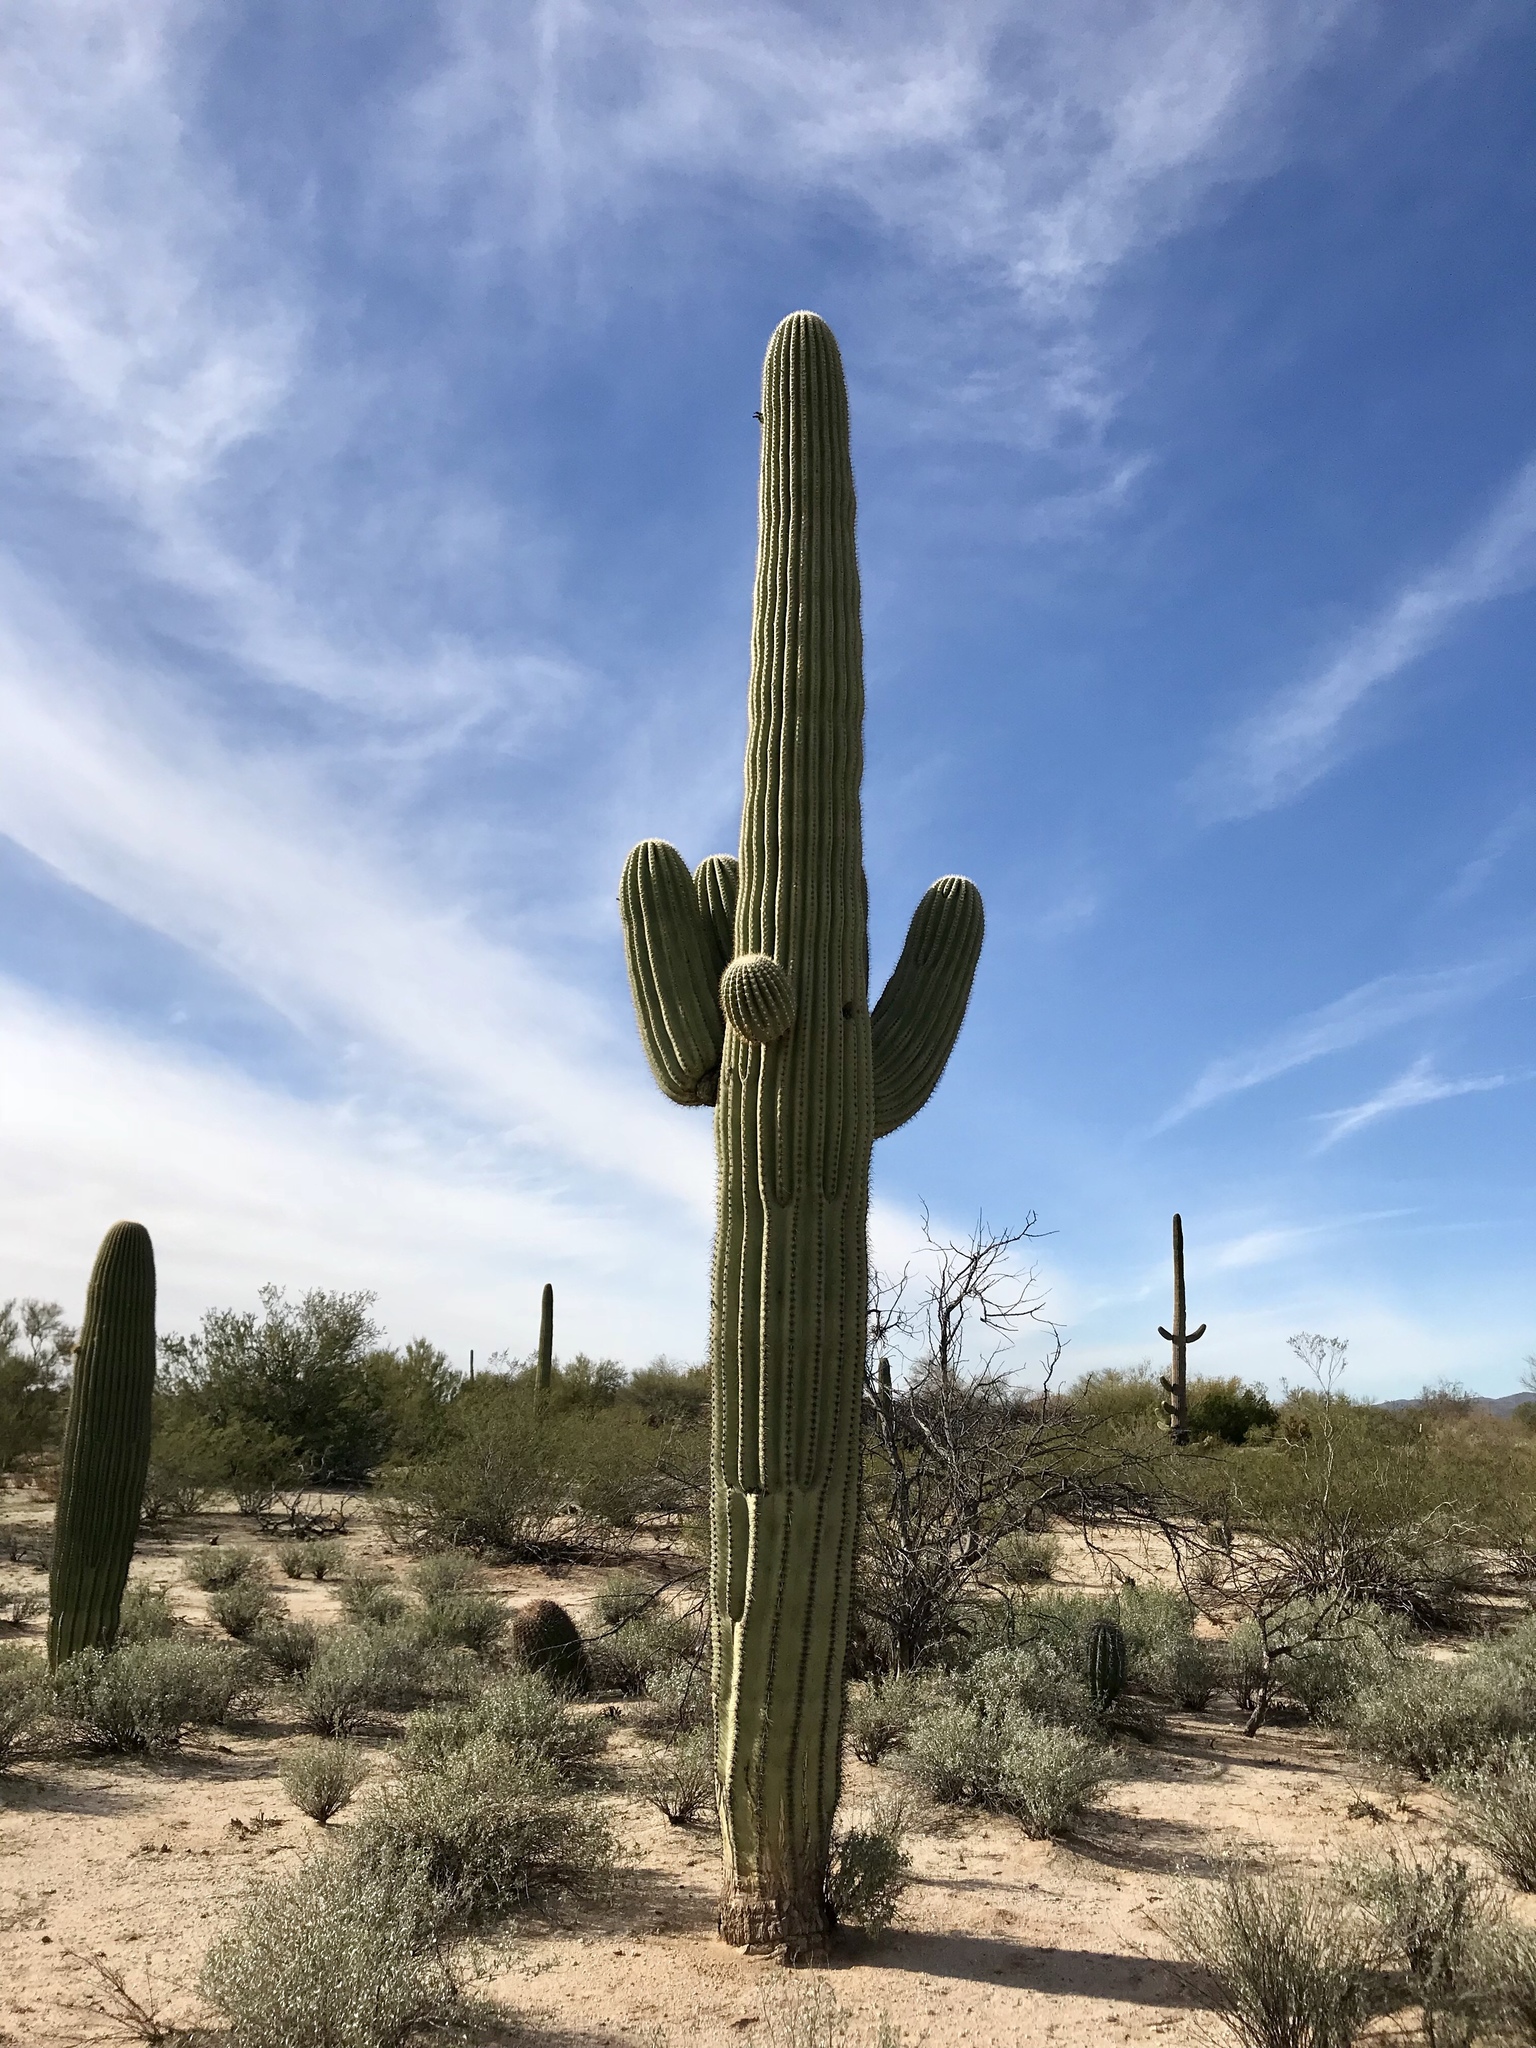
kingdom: Plantae
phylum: Tracheophyta
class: Magnoliopsida
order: Caryophyllales
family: Cactaceae
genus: Carnegiea
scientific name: Carnegiea gigantea
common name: Saguaro
